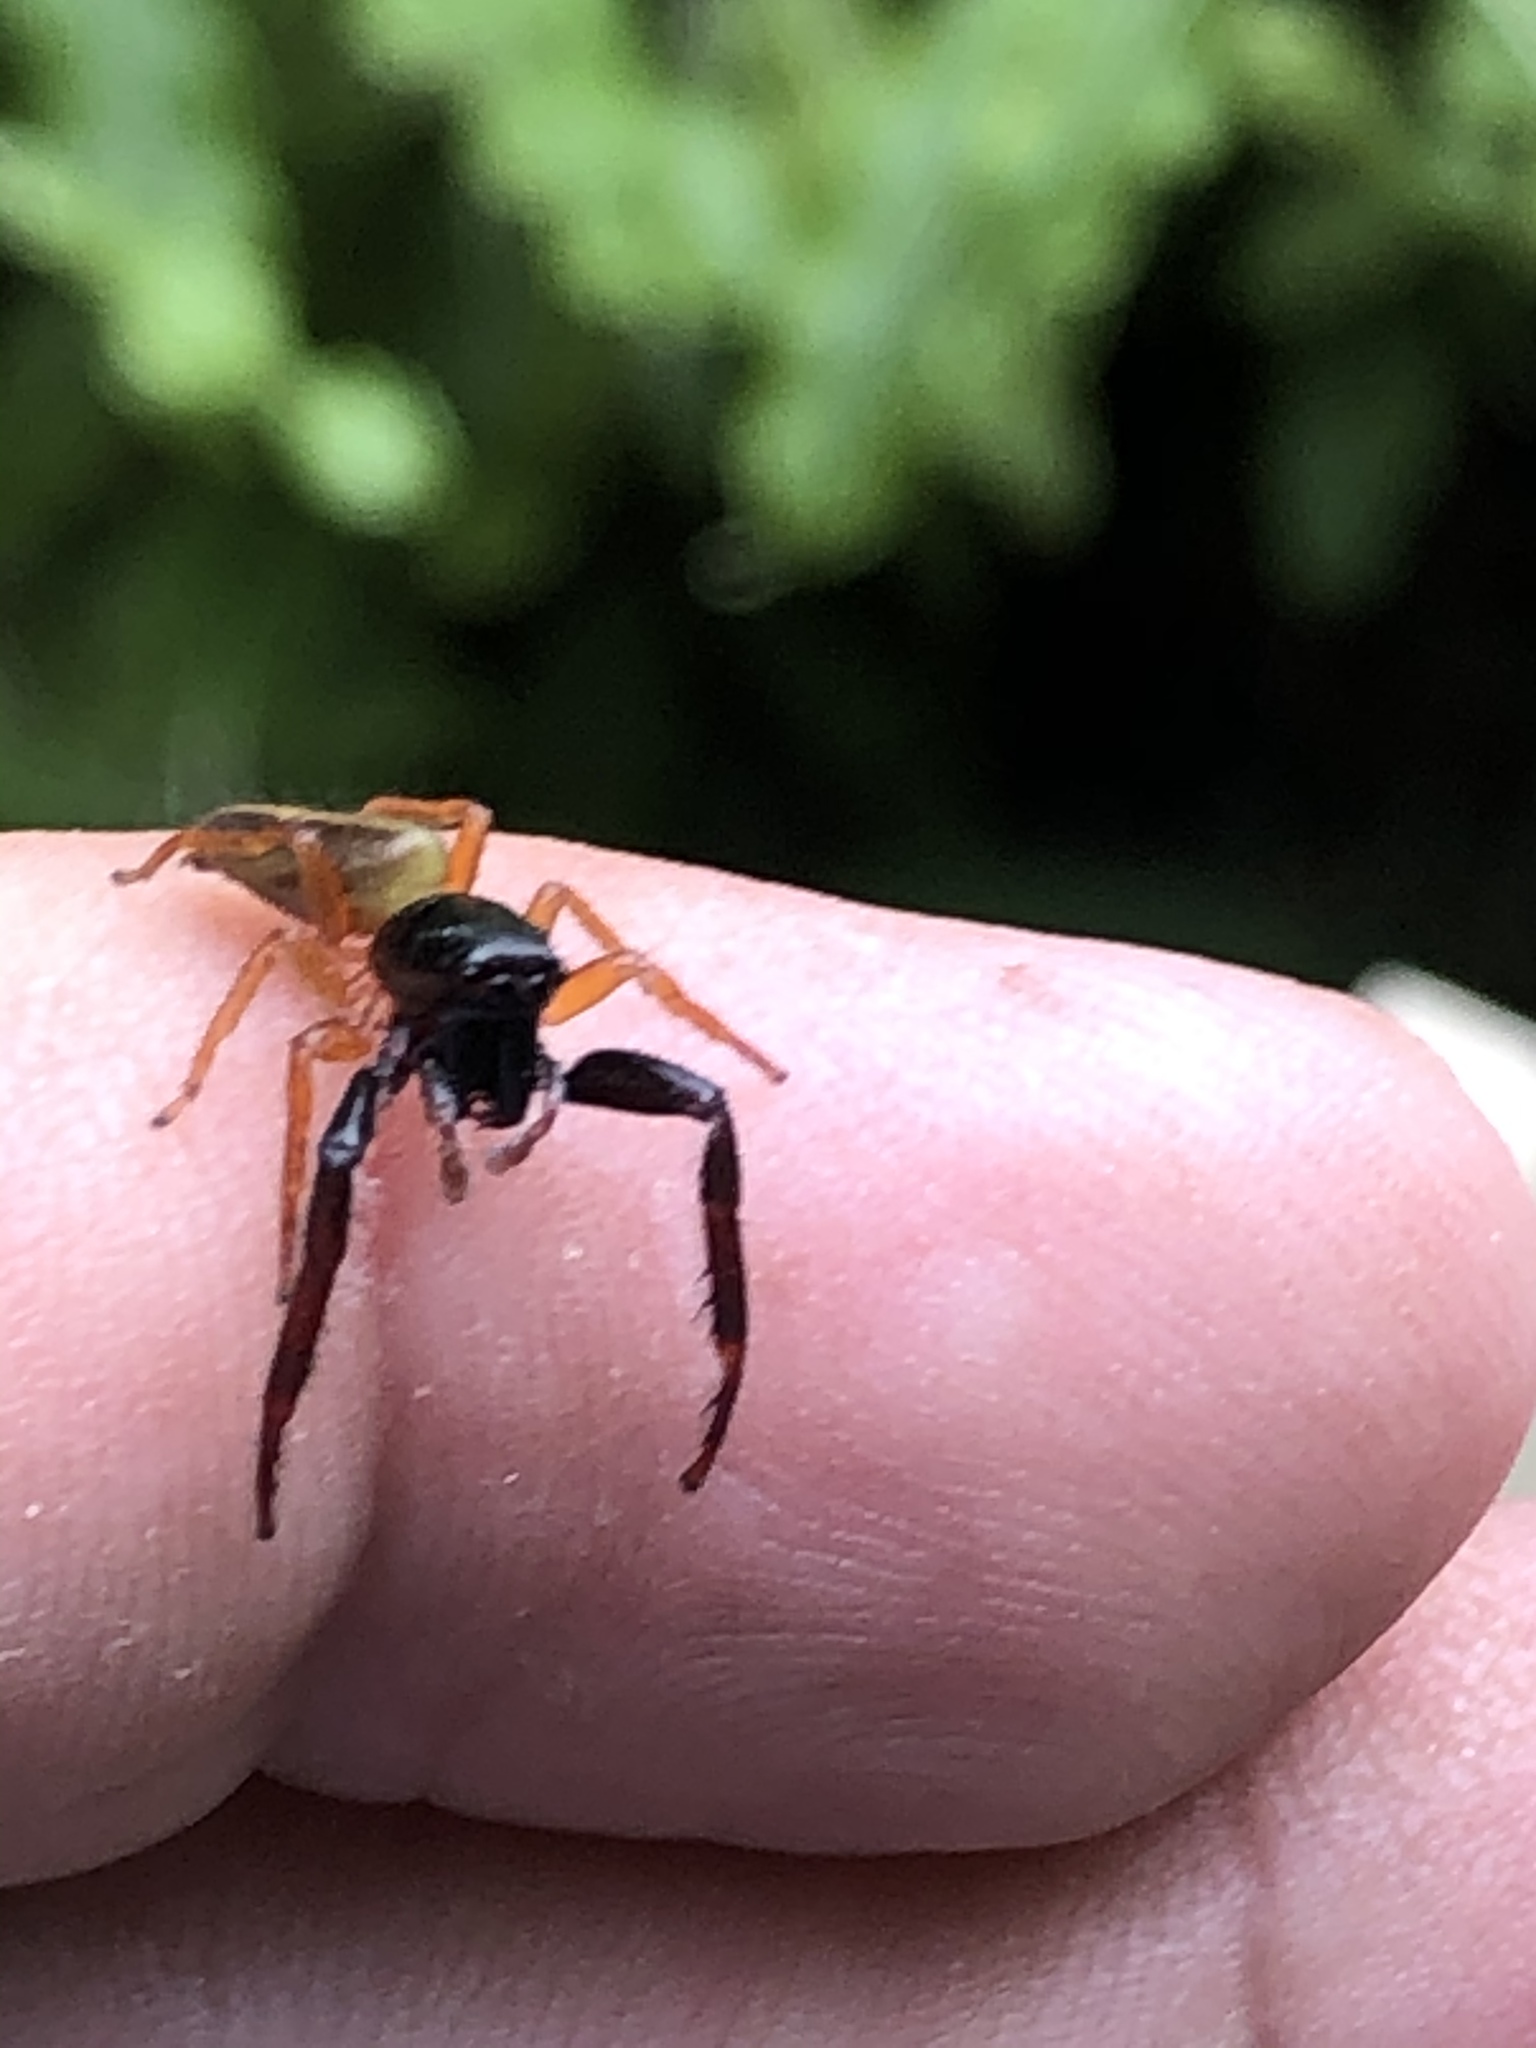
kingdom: Animalia
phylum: Arthropoda
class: Arachnida
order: Araneae
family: Salticidae
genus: Trite
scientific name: Trite planiceps
